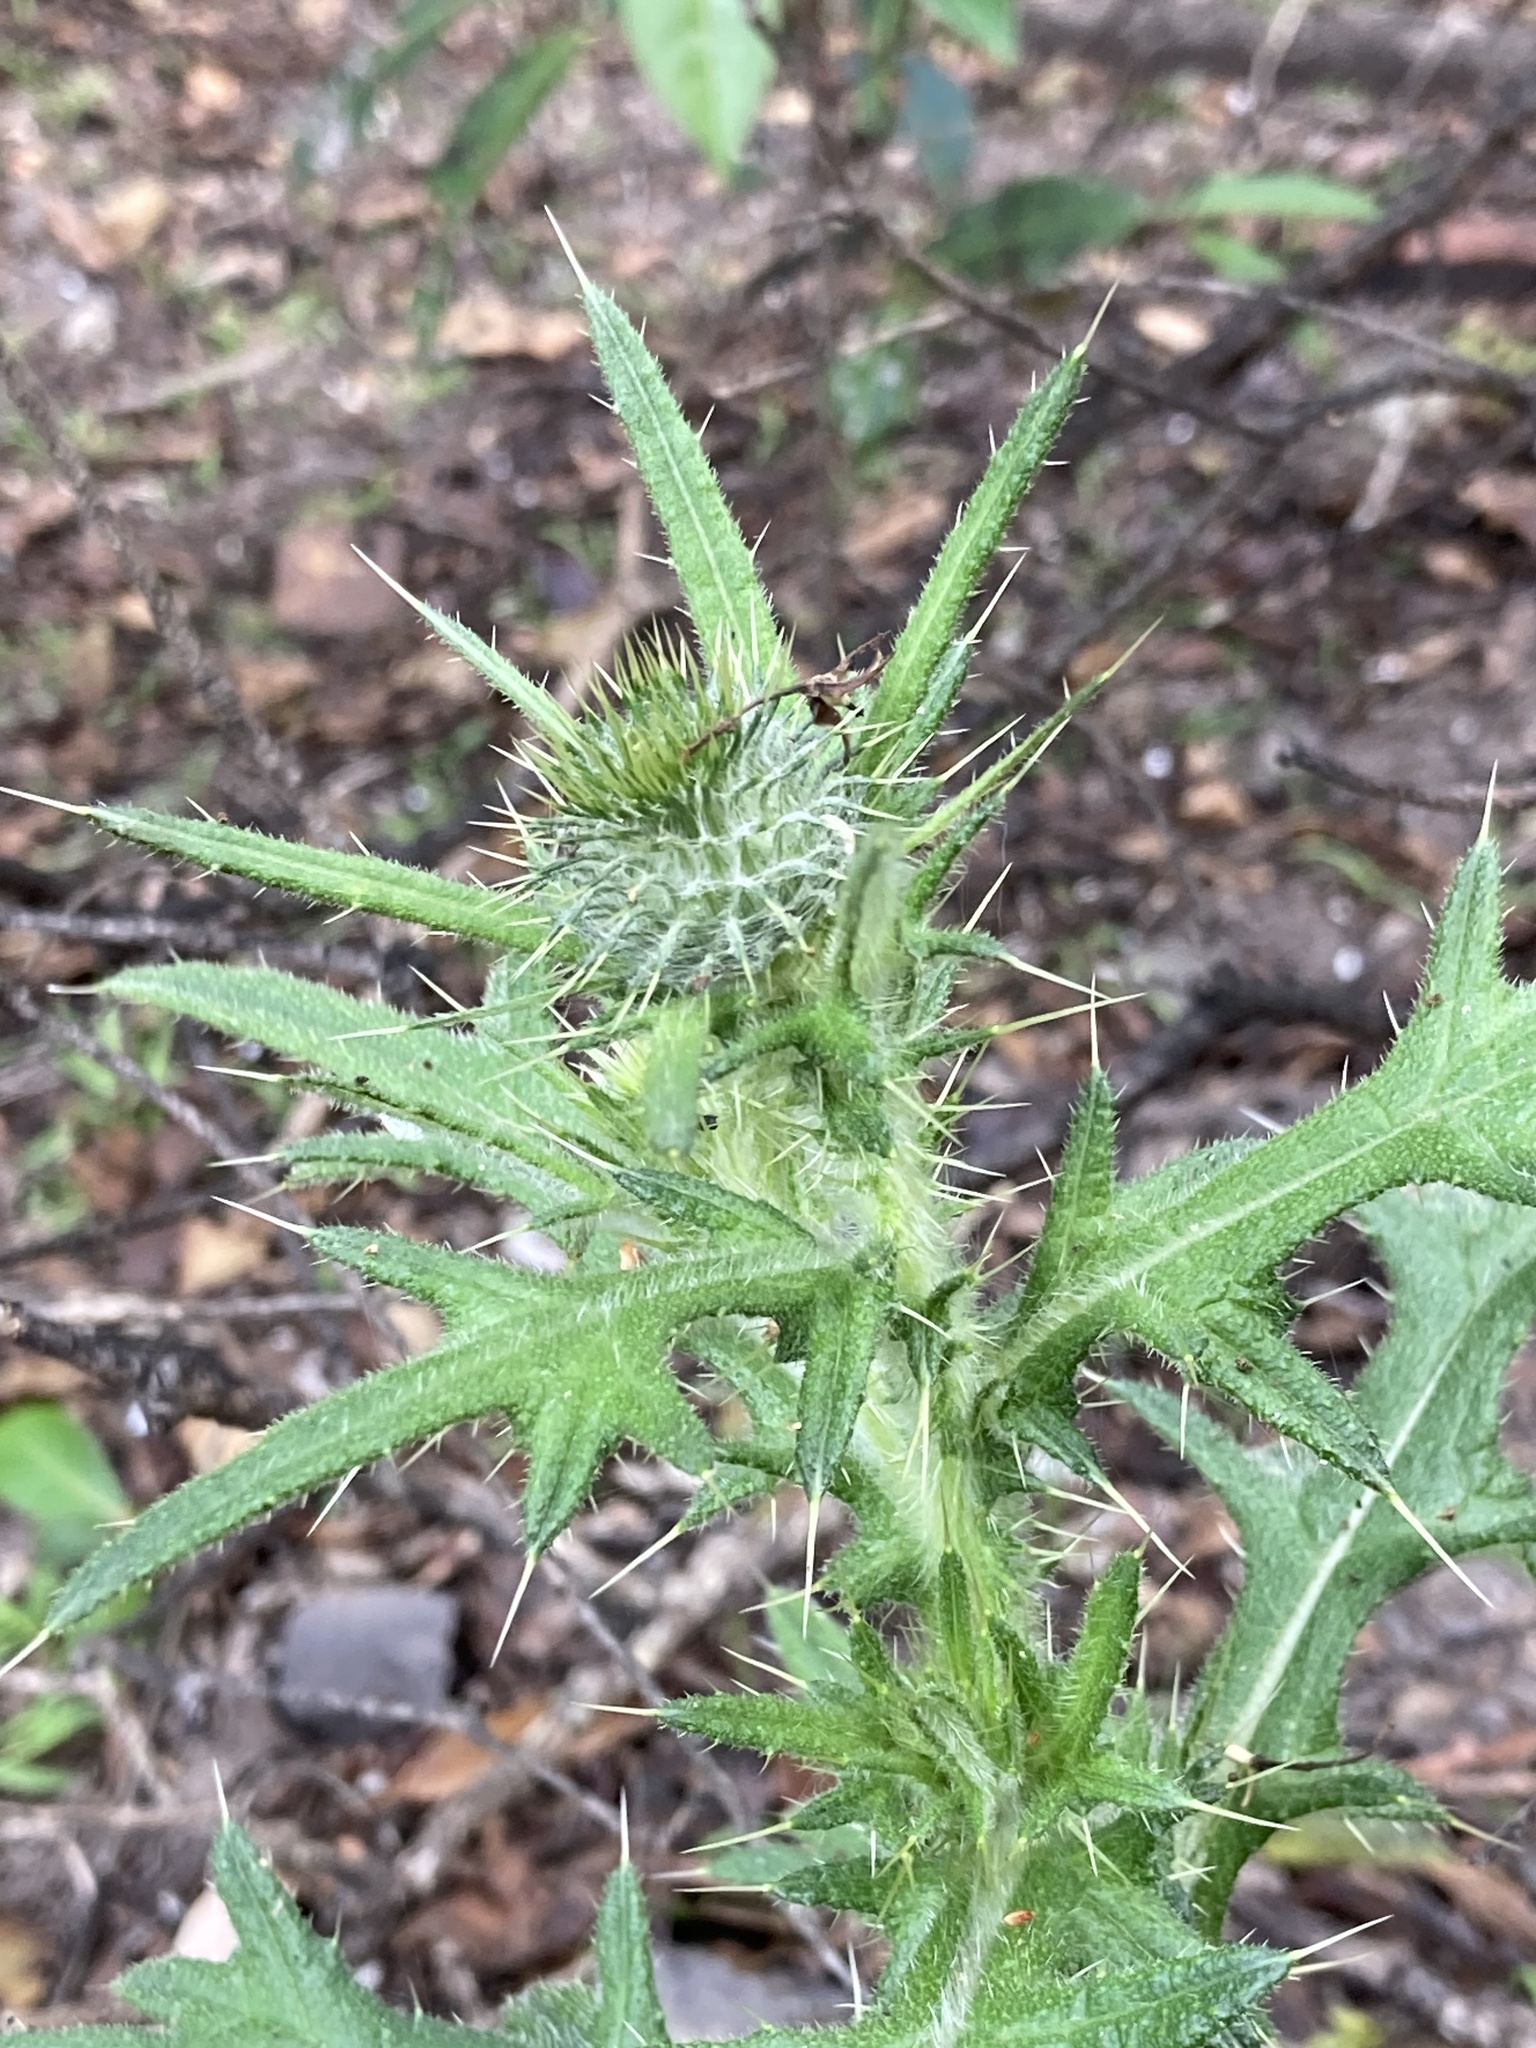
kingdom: Plantae
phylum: Tracheophyta
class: Magnoliopsida
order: Asterales
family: Asteraceae
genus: Cirsium
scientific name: Cirsium vulgare
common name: Bull thistle
